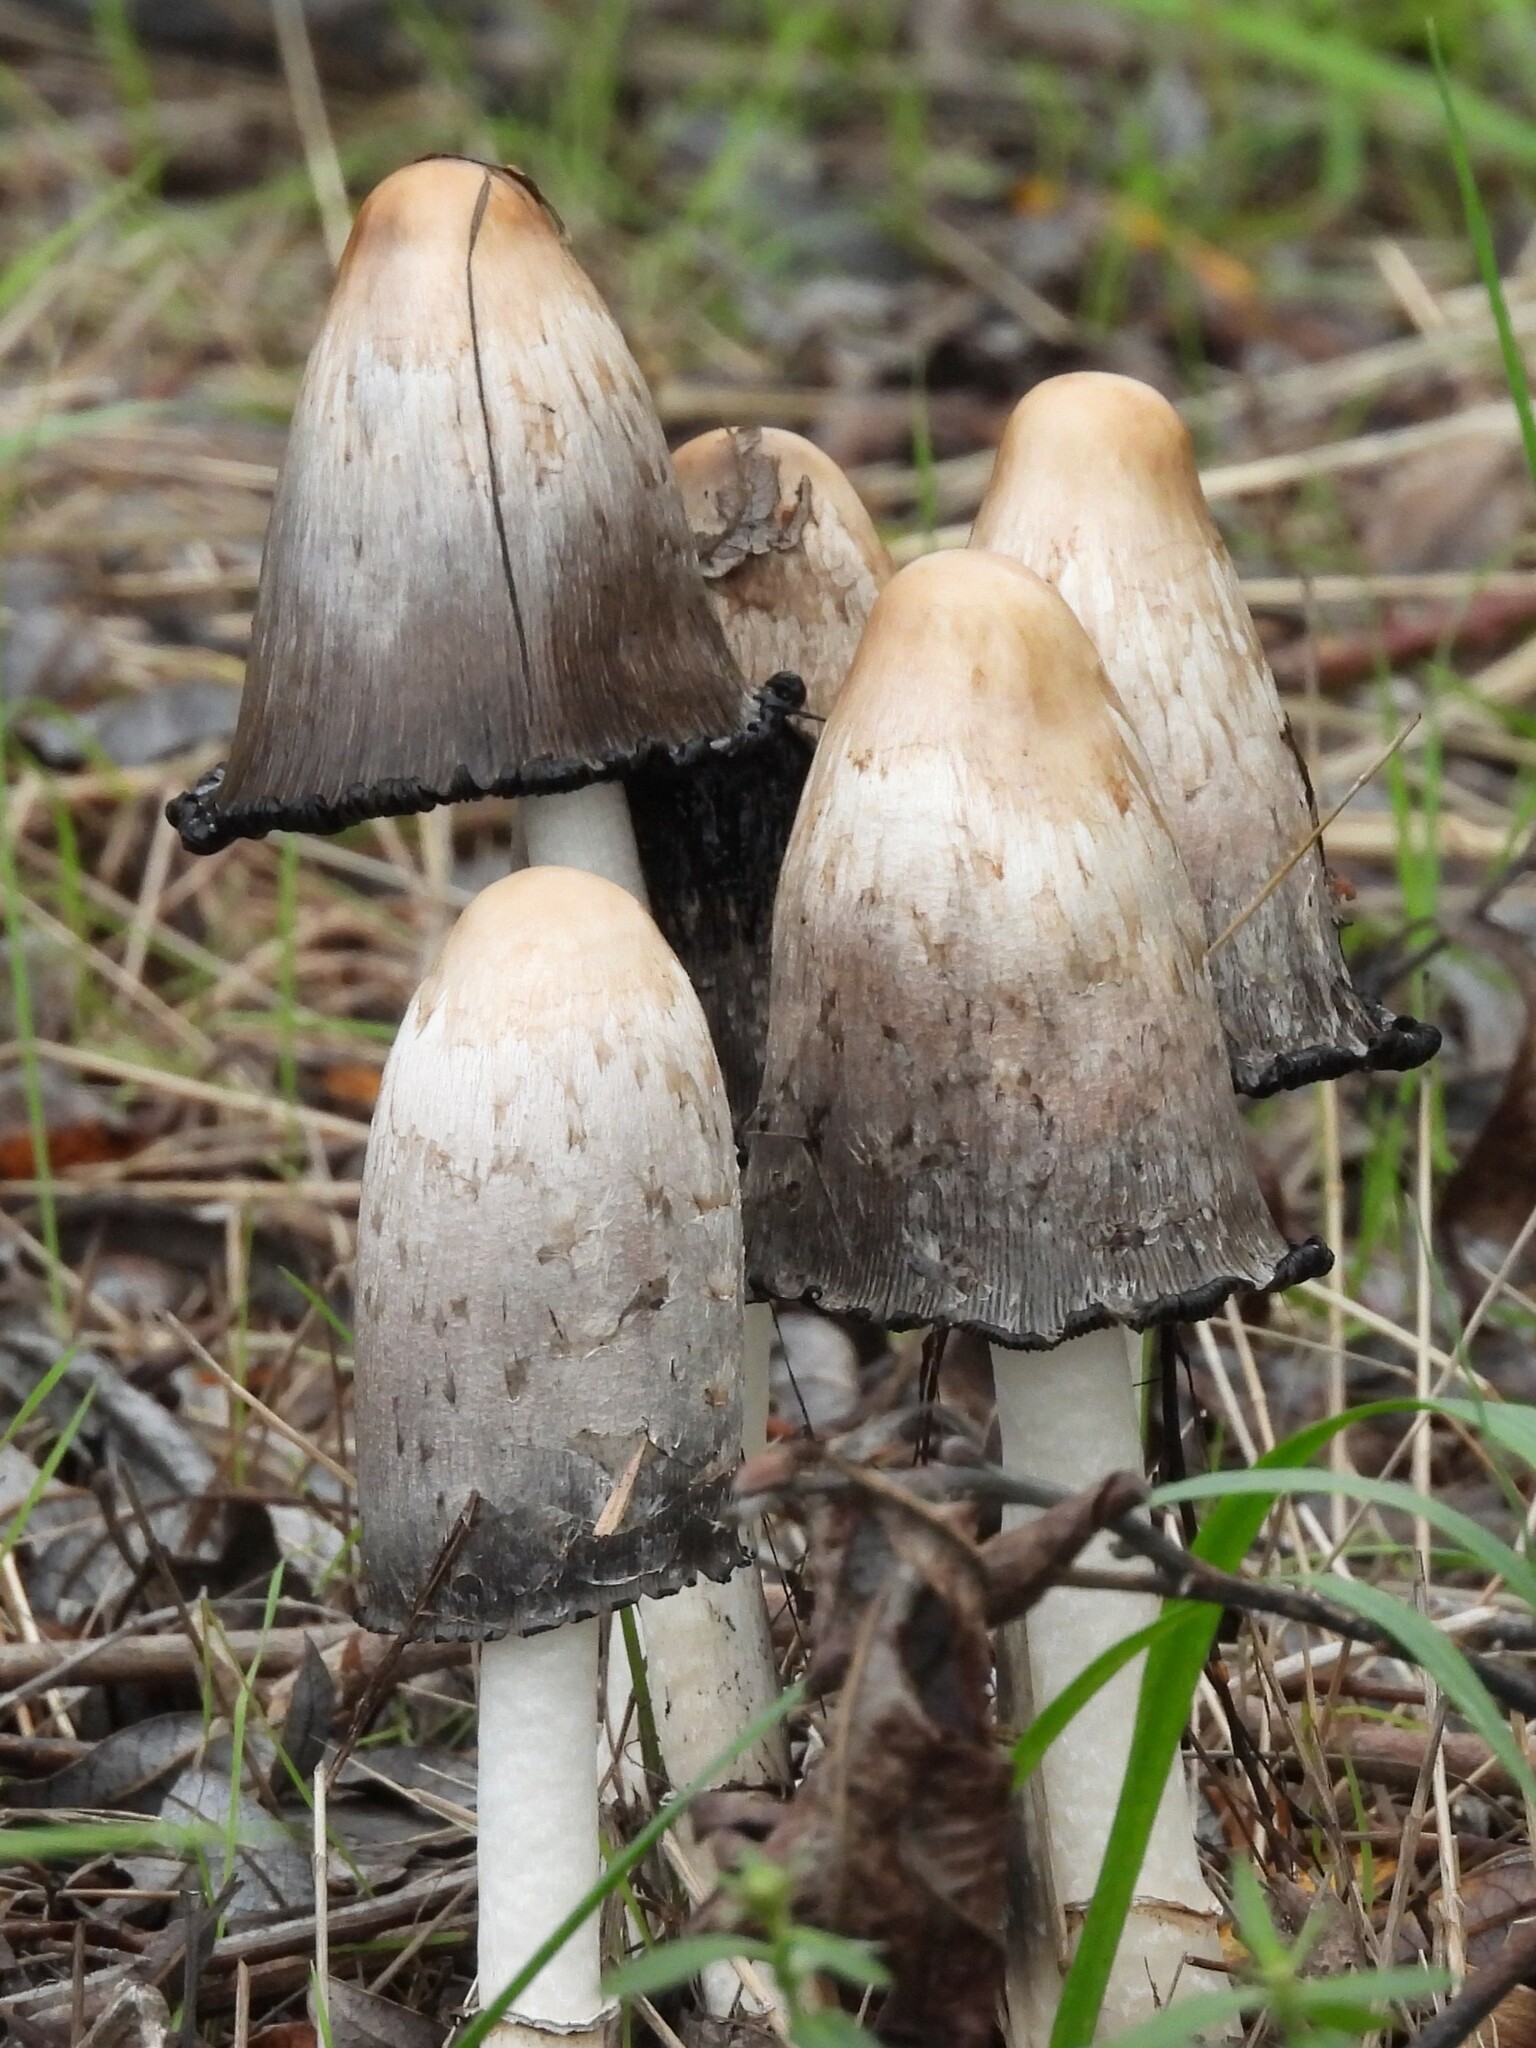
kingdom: Fungi
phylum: Basidiomycota
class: Agaricomycetes
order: Agaricales
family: Agaricaceae
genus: Coprinus
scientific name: Coprinus comatus
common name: Lawyer's wig
